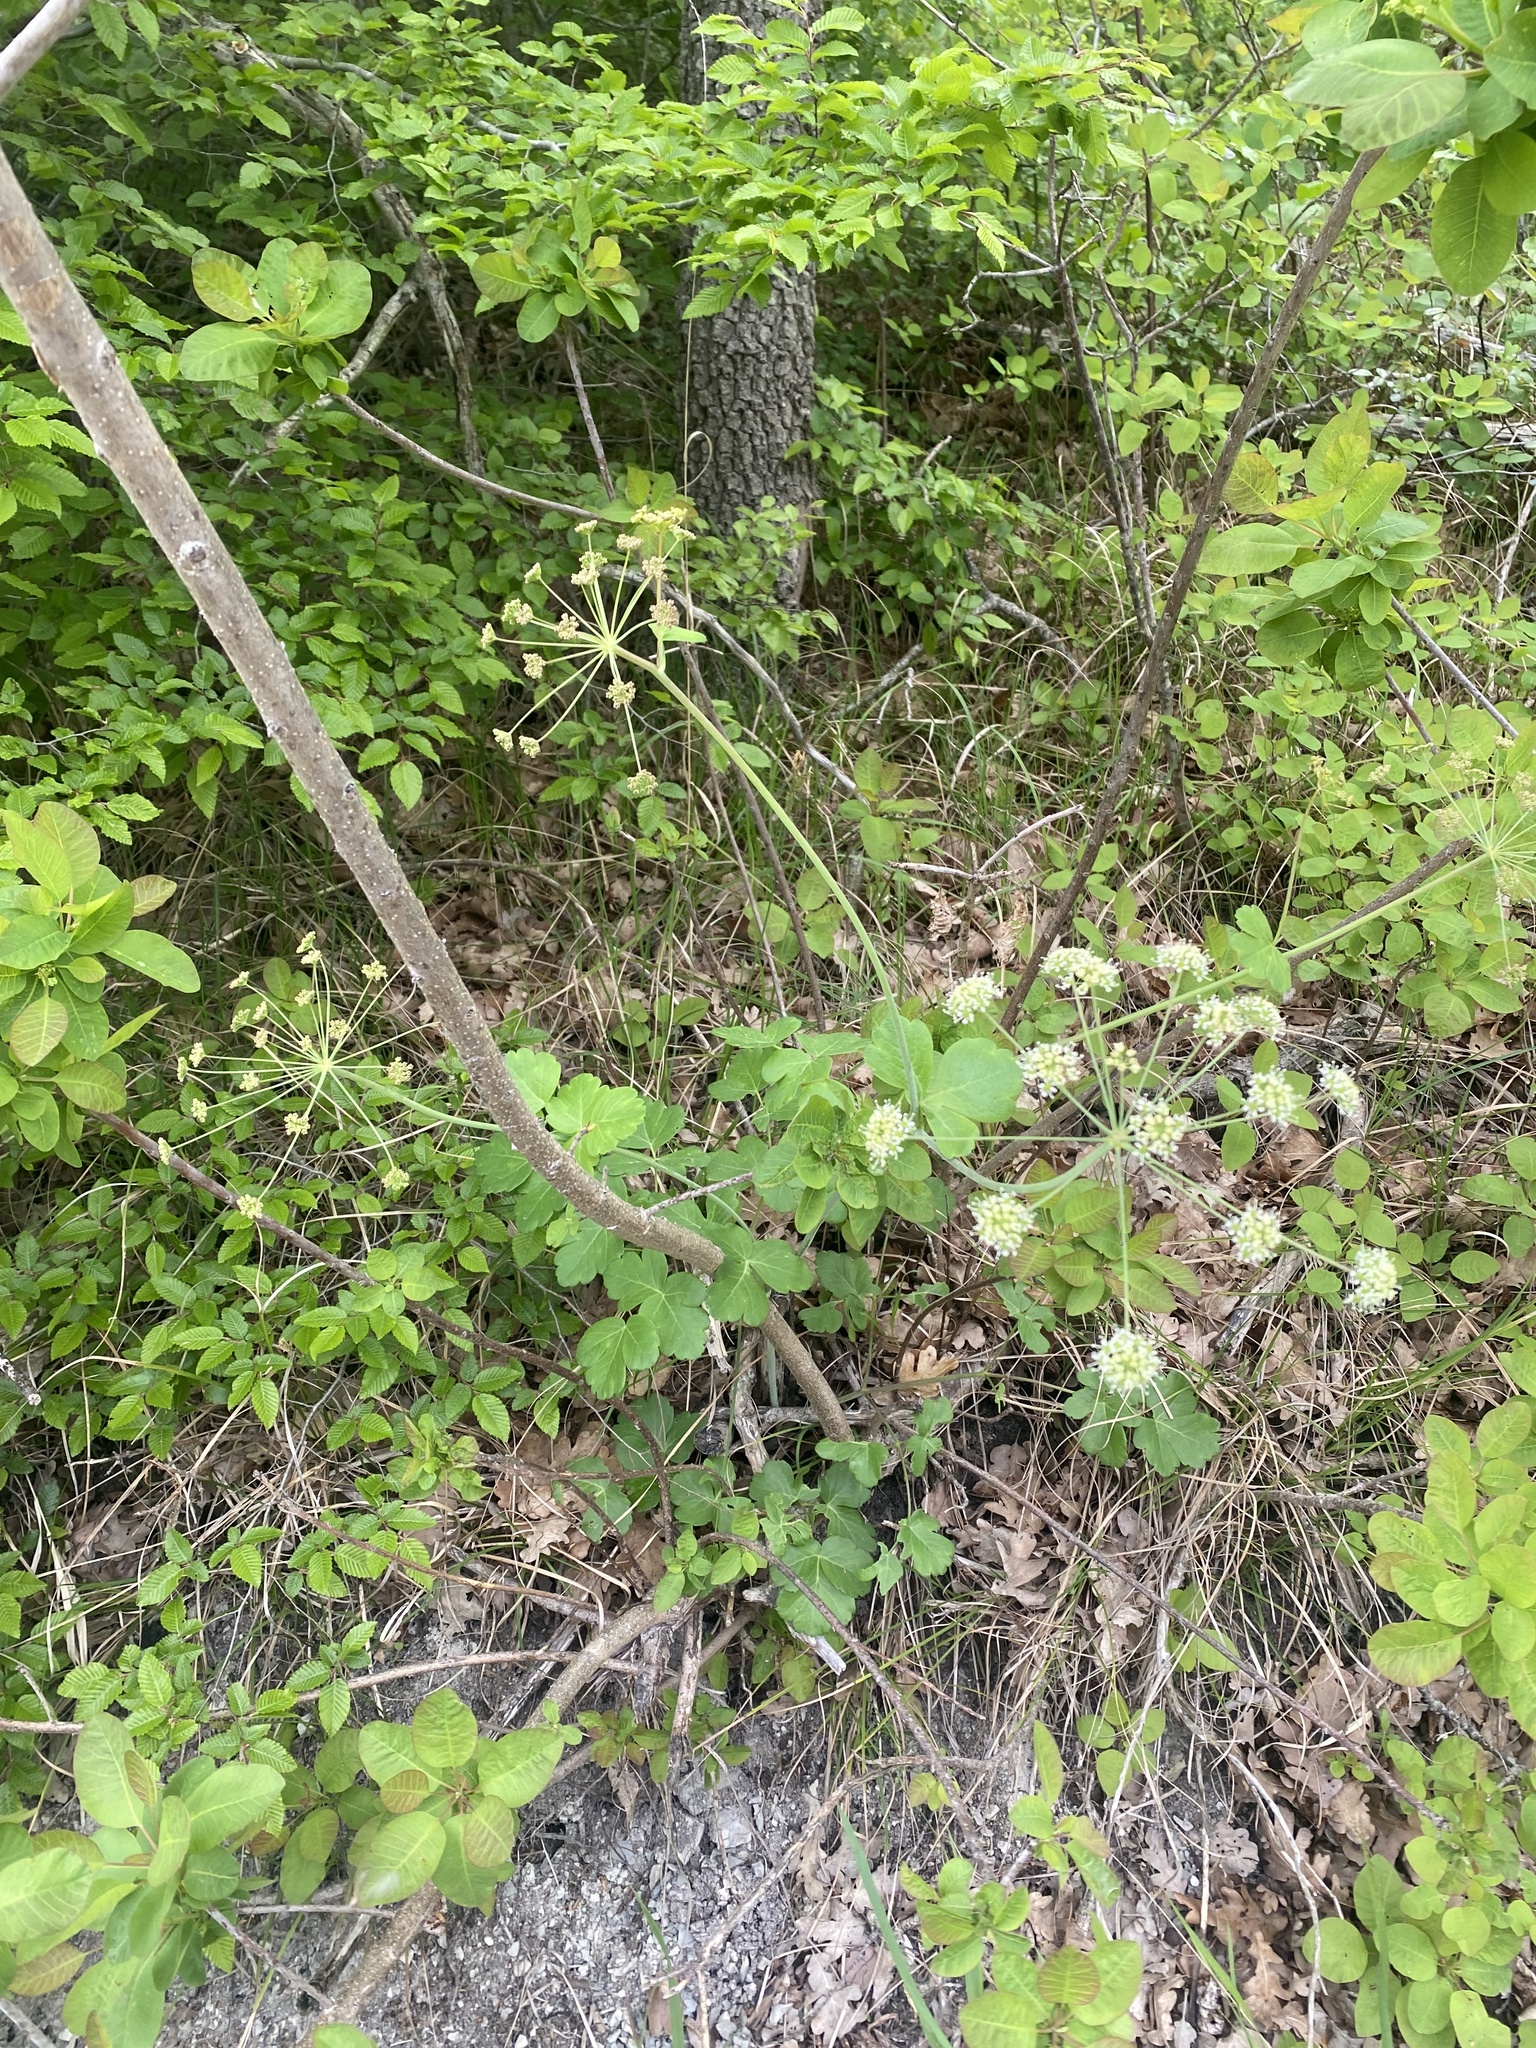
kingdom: Plantae
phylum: Tracheophyta
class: Magnoliopsida
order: Apiales
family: Apiaceae
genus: Laser
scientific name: Laser trilobum
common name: Laser
